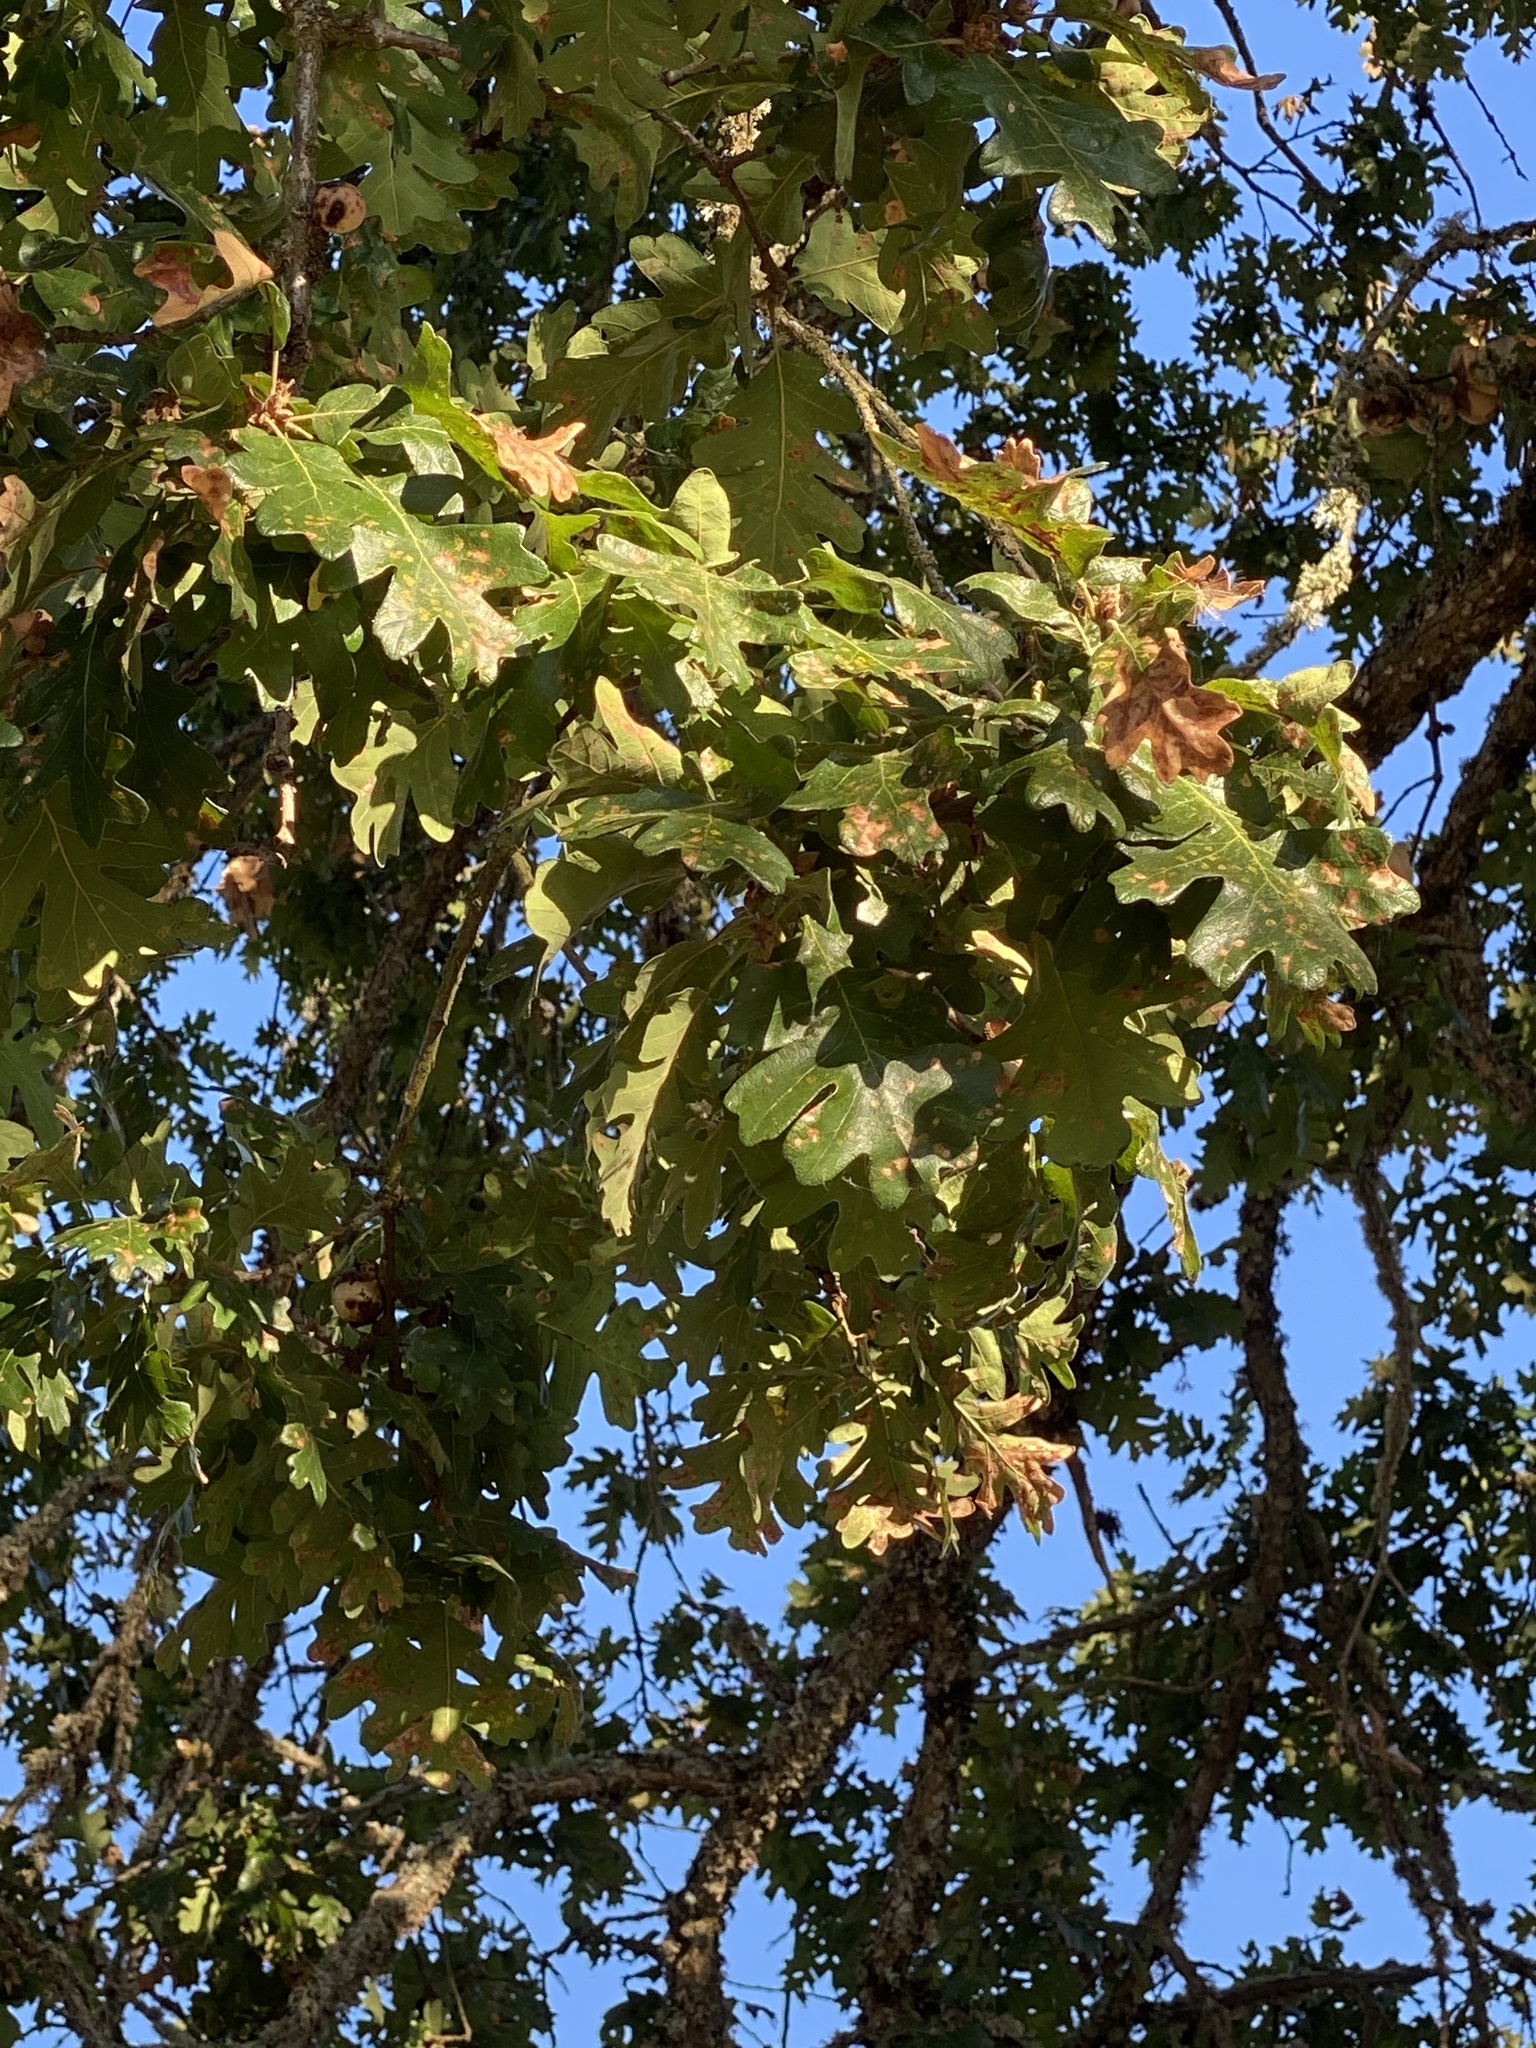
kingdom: Plantae
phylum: Tracheophyta
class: Magnoliopsida
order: Fagales
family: Fagaceae
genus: Quercus
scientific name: Quercus garryana
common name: Garry oak
